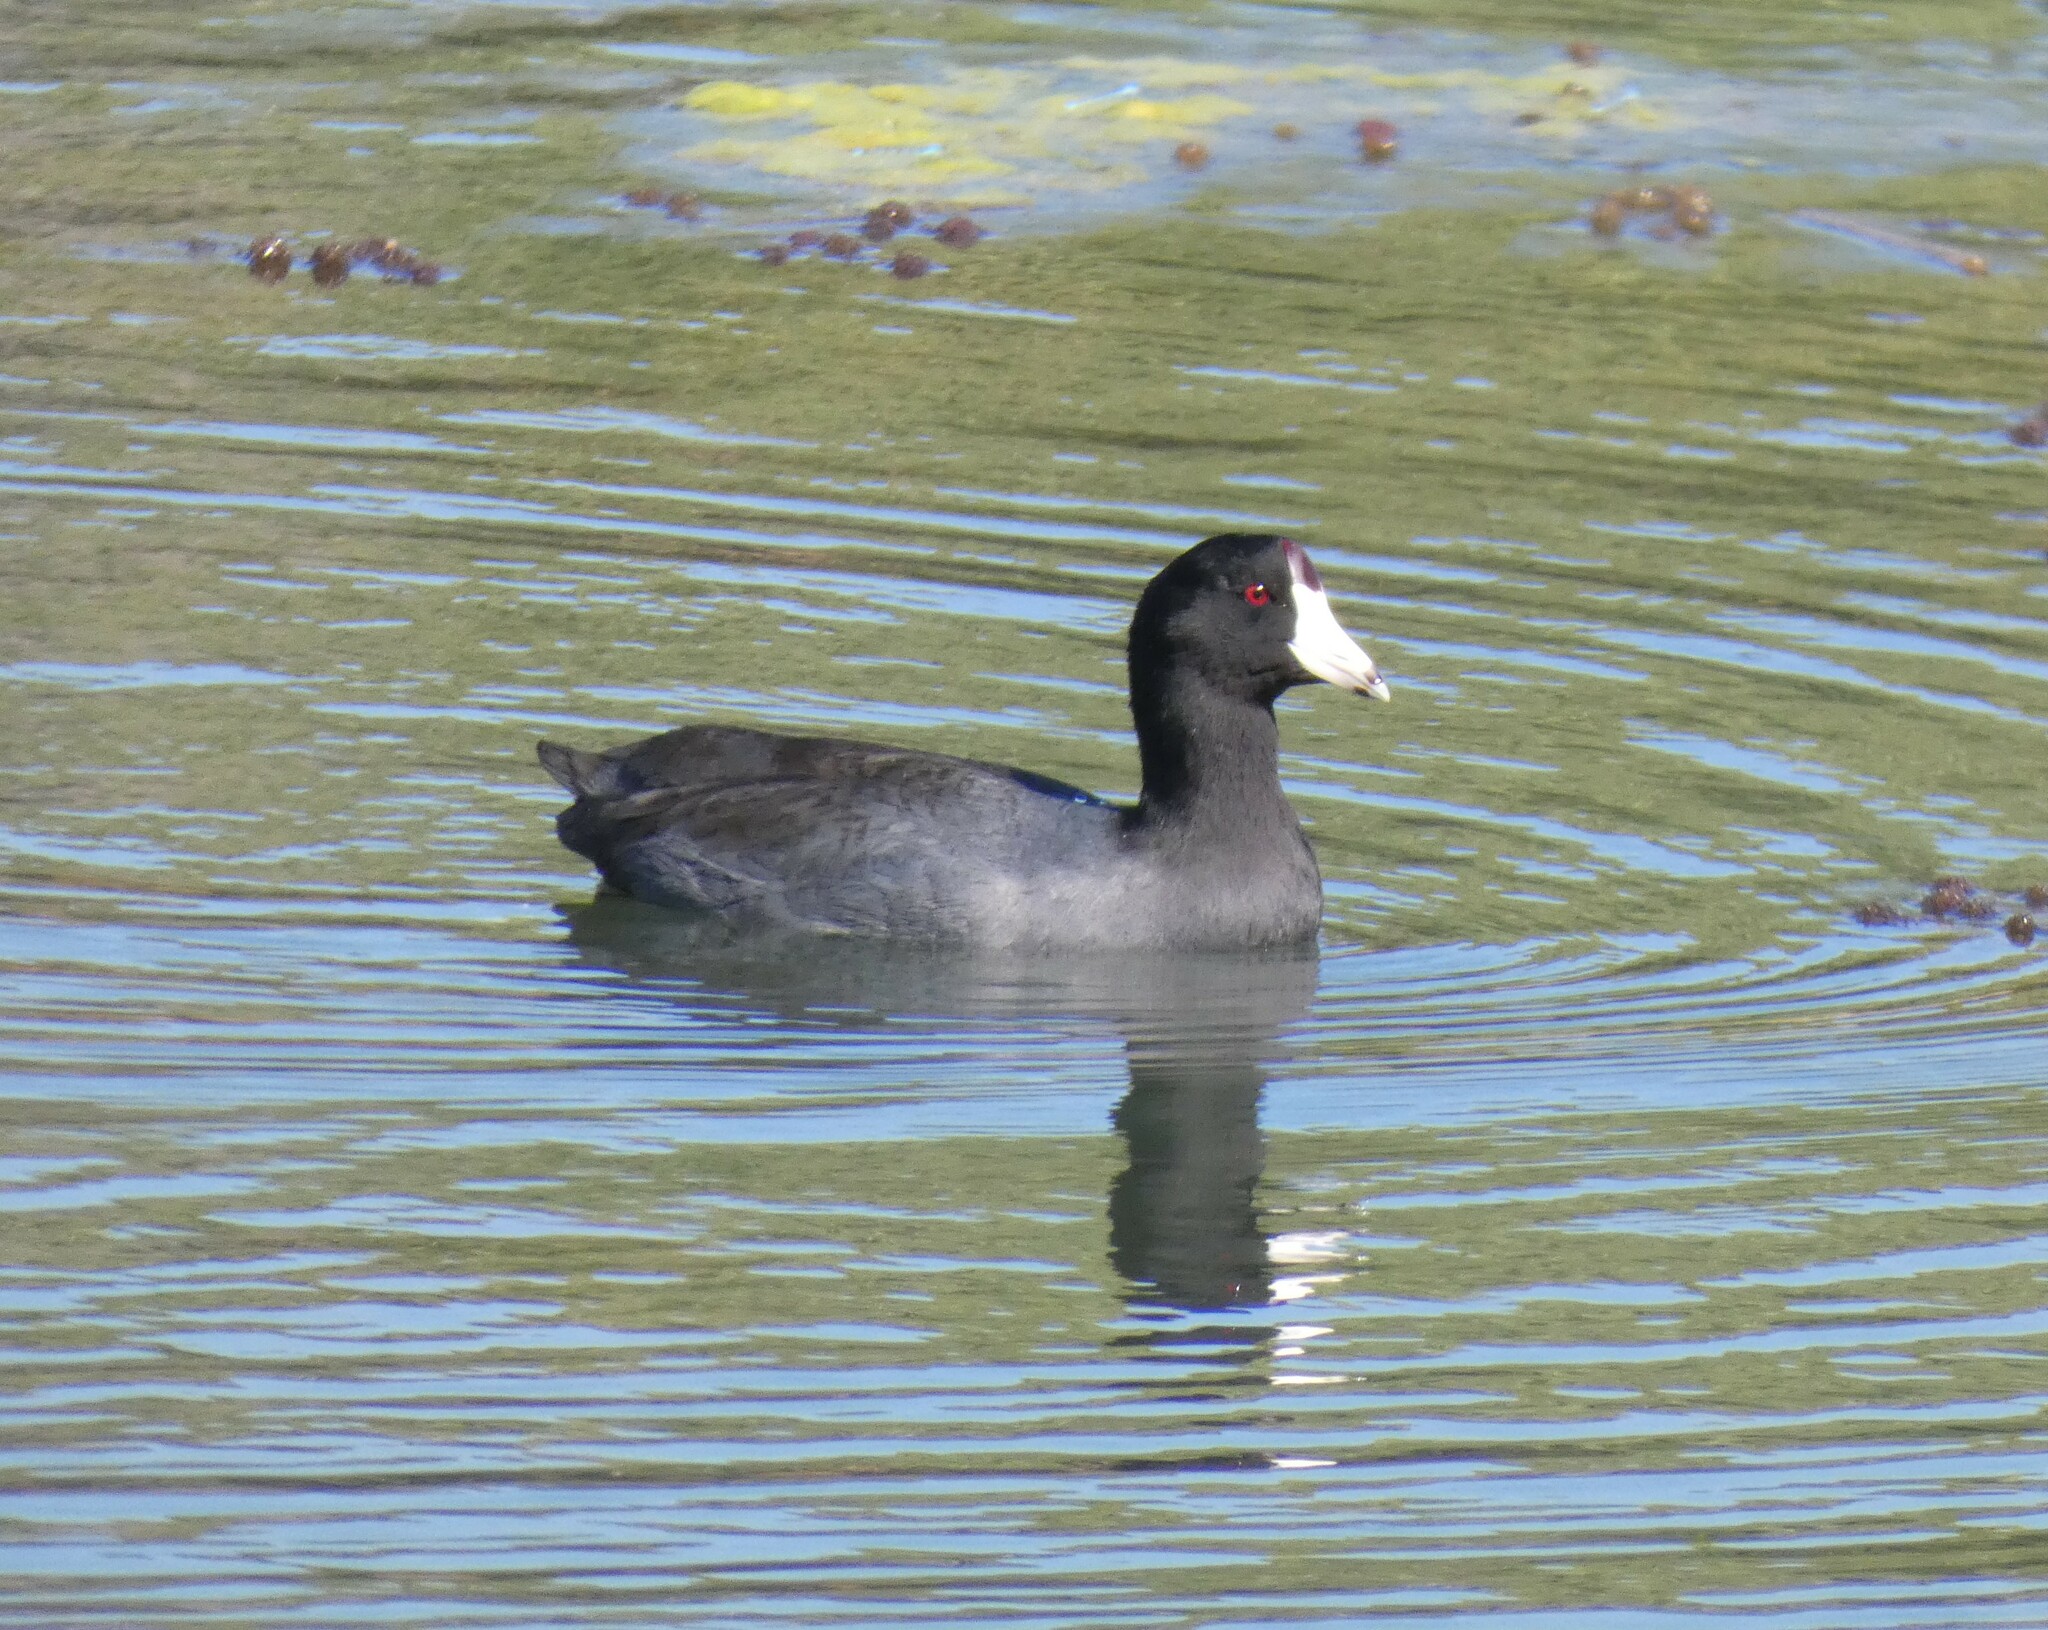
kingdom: Animalia
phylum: Chordata
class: Aves
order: Gruiformes
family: Rallidae
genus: Fulica
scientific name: Fulica americana
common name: American coot
